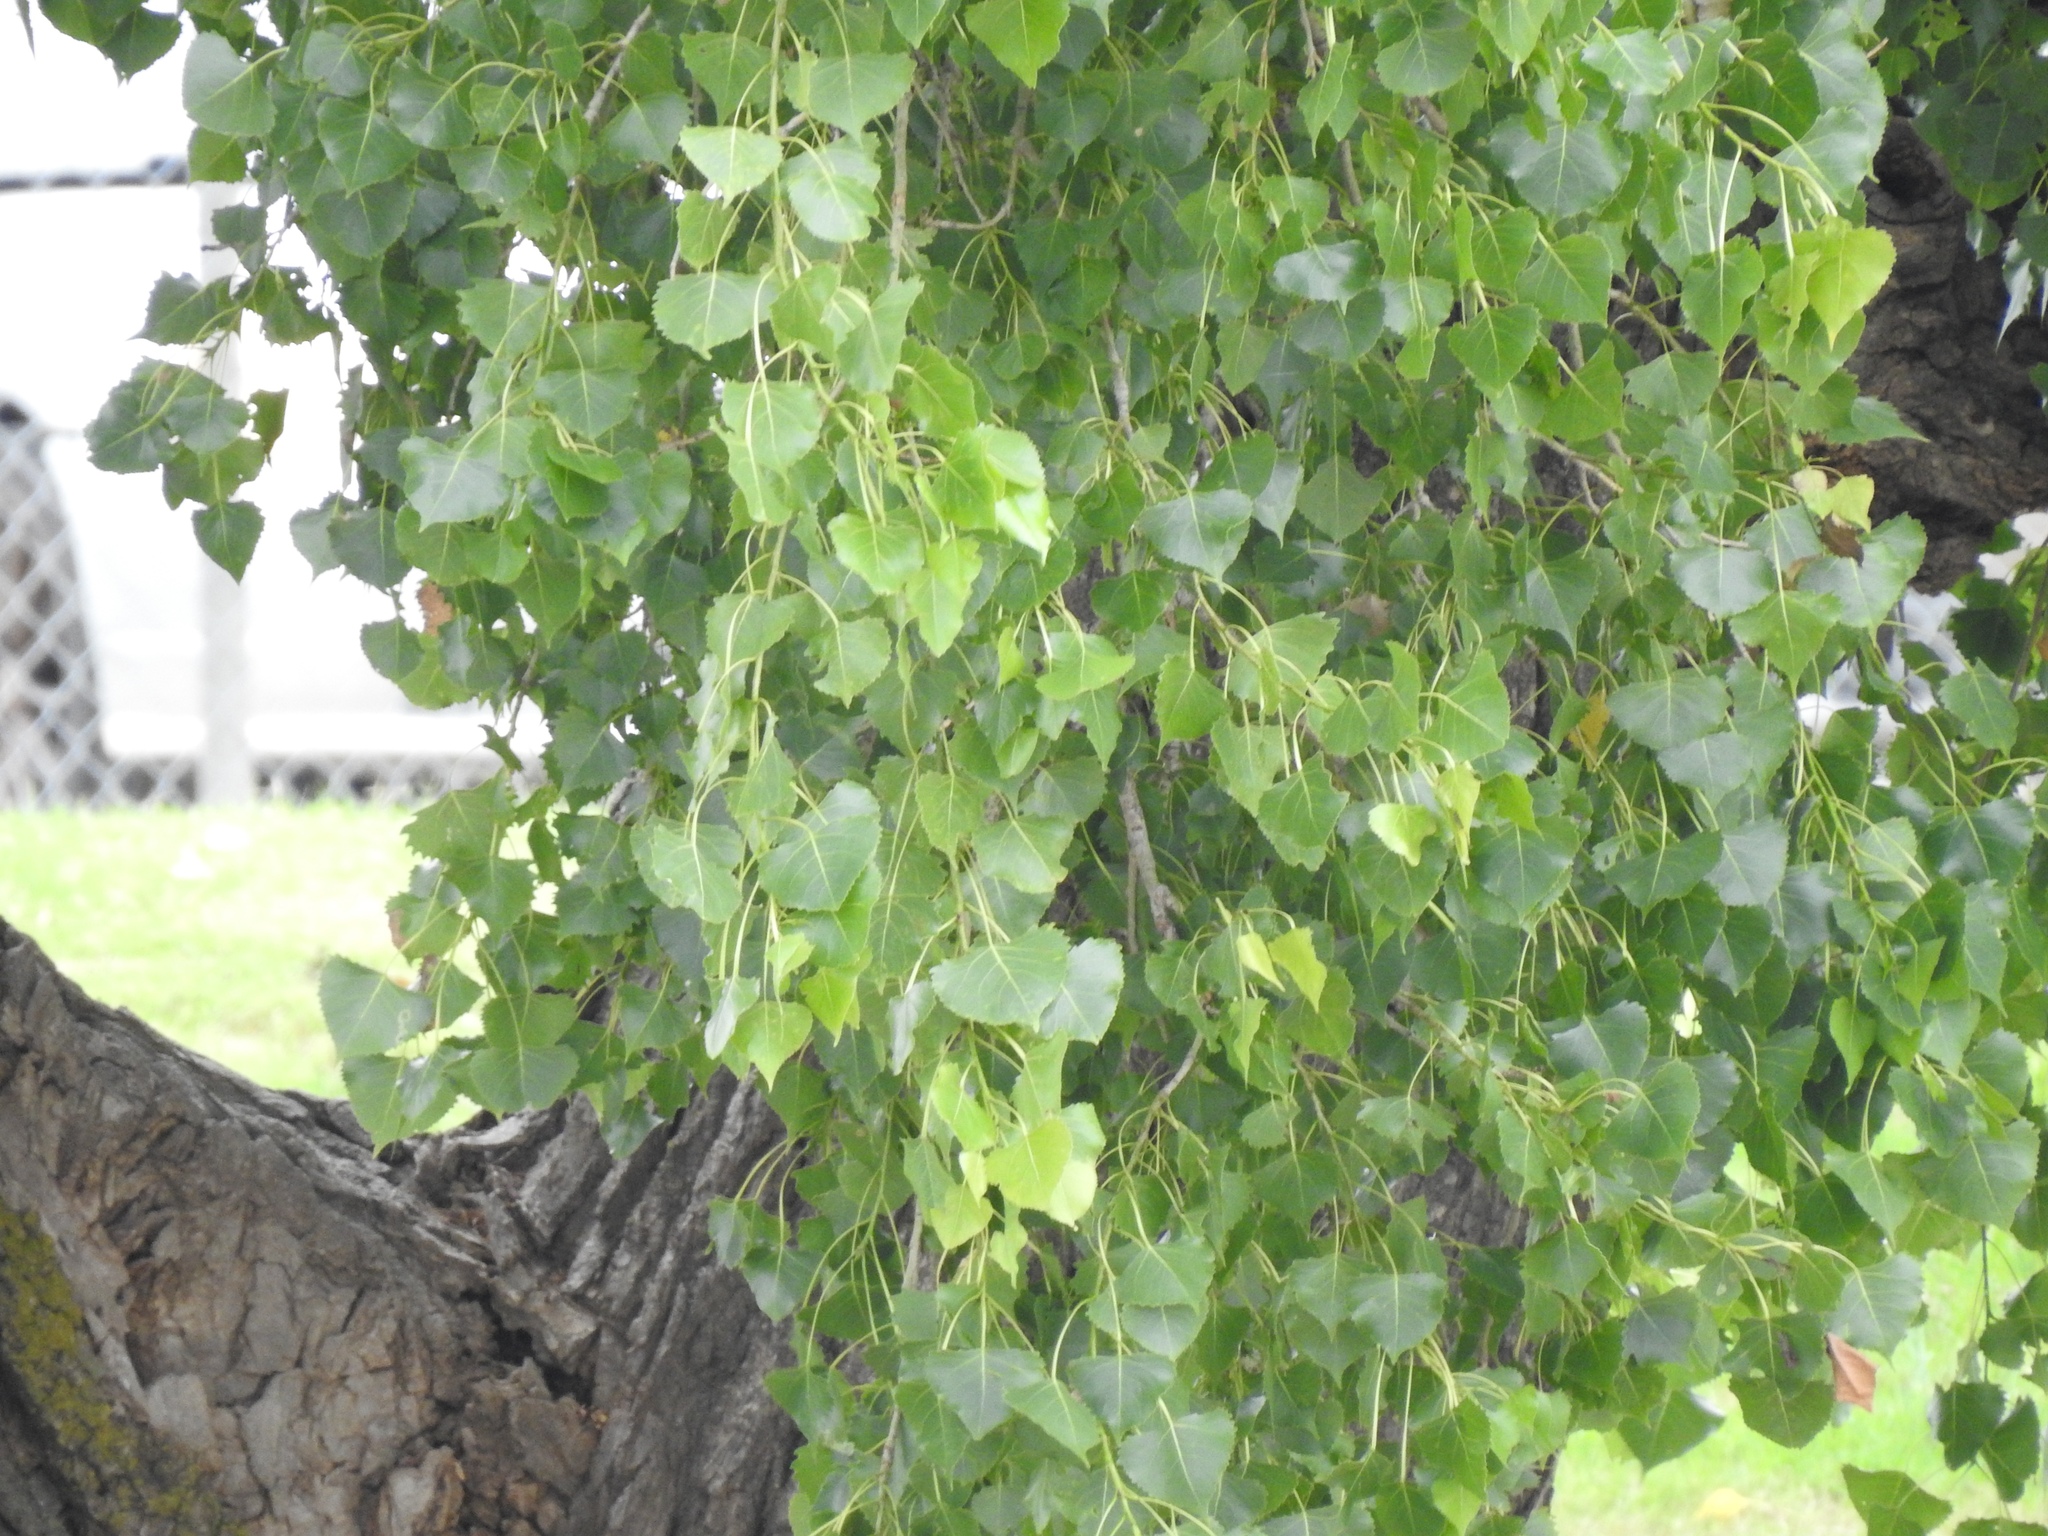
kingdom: Plantae
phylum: Tracheophyta
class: Magnoliopsida
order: Malpighiales
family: Salicaceae
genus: Populus
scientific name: Populus deltoides
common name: Eastern cottonwood
